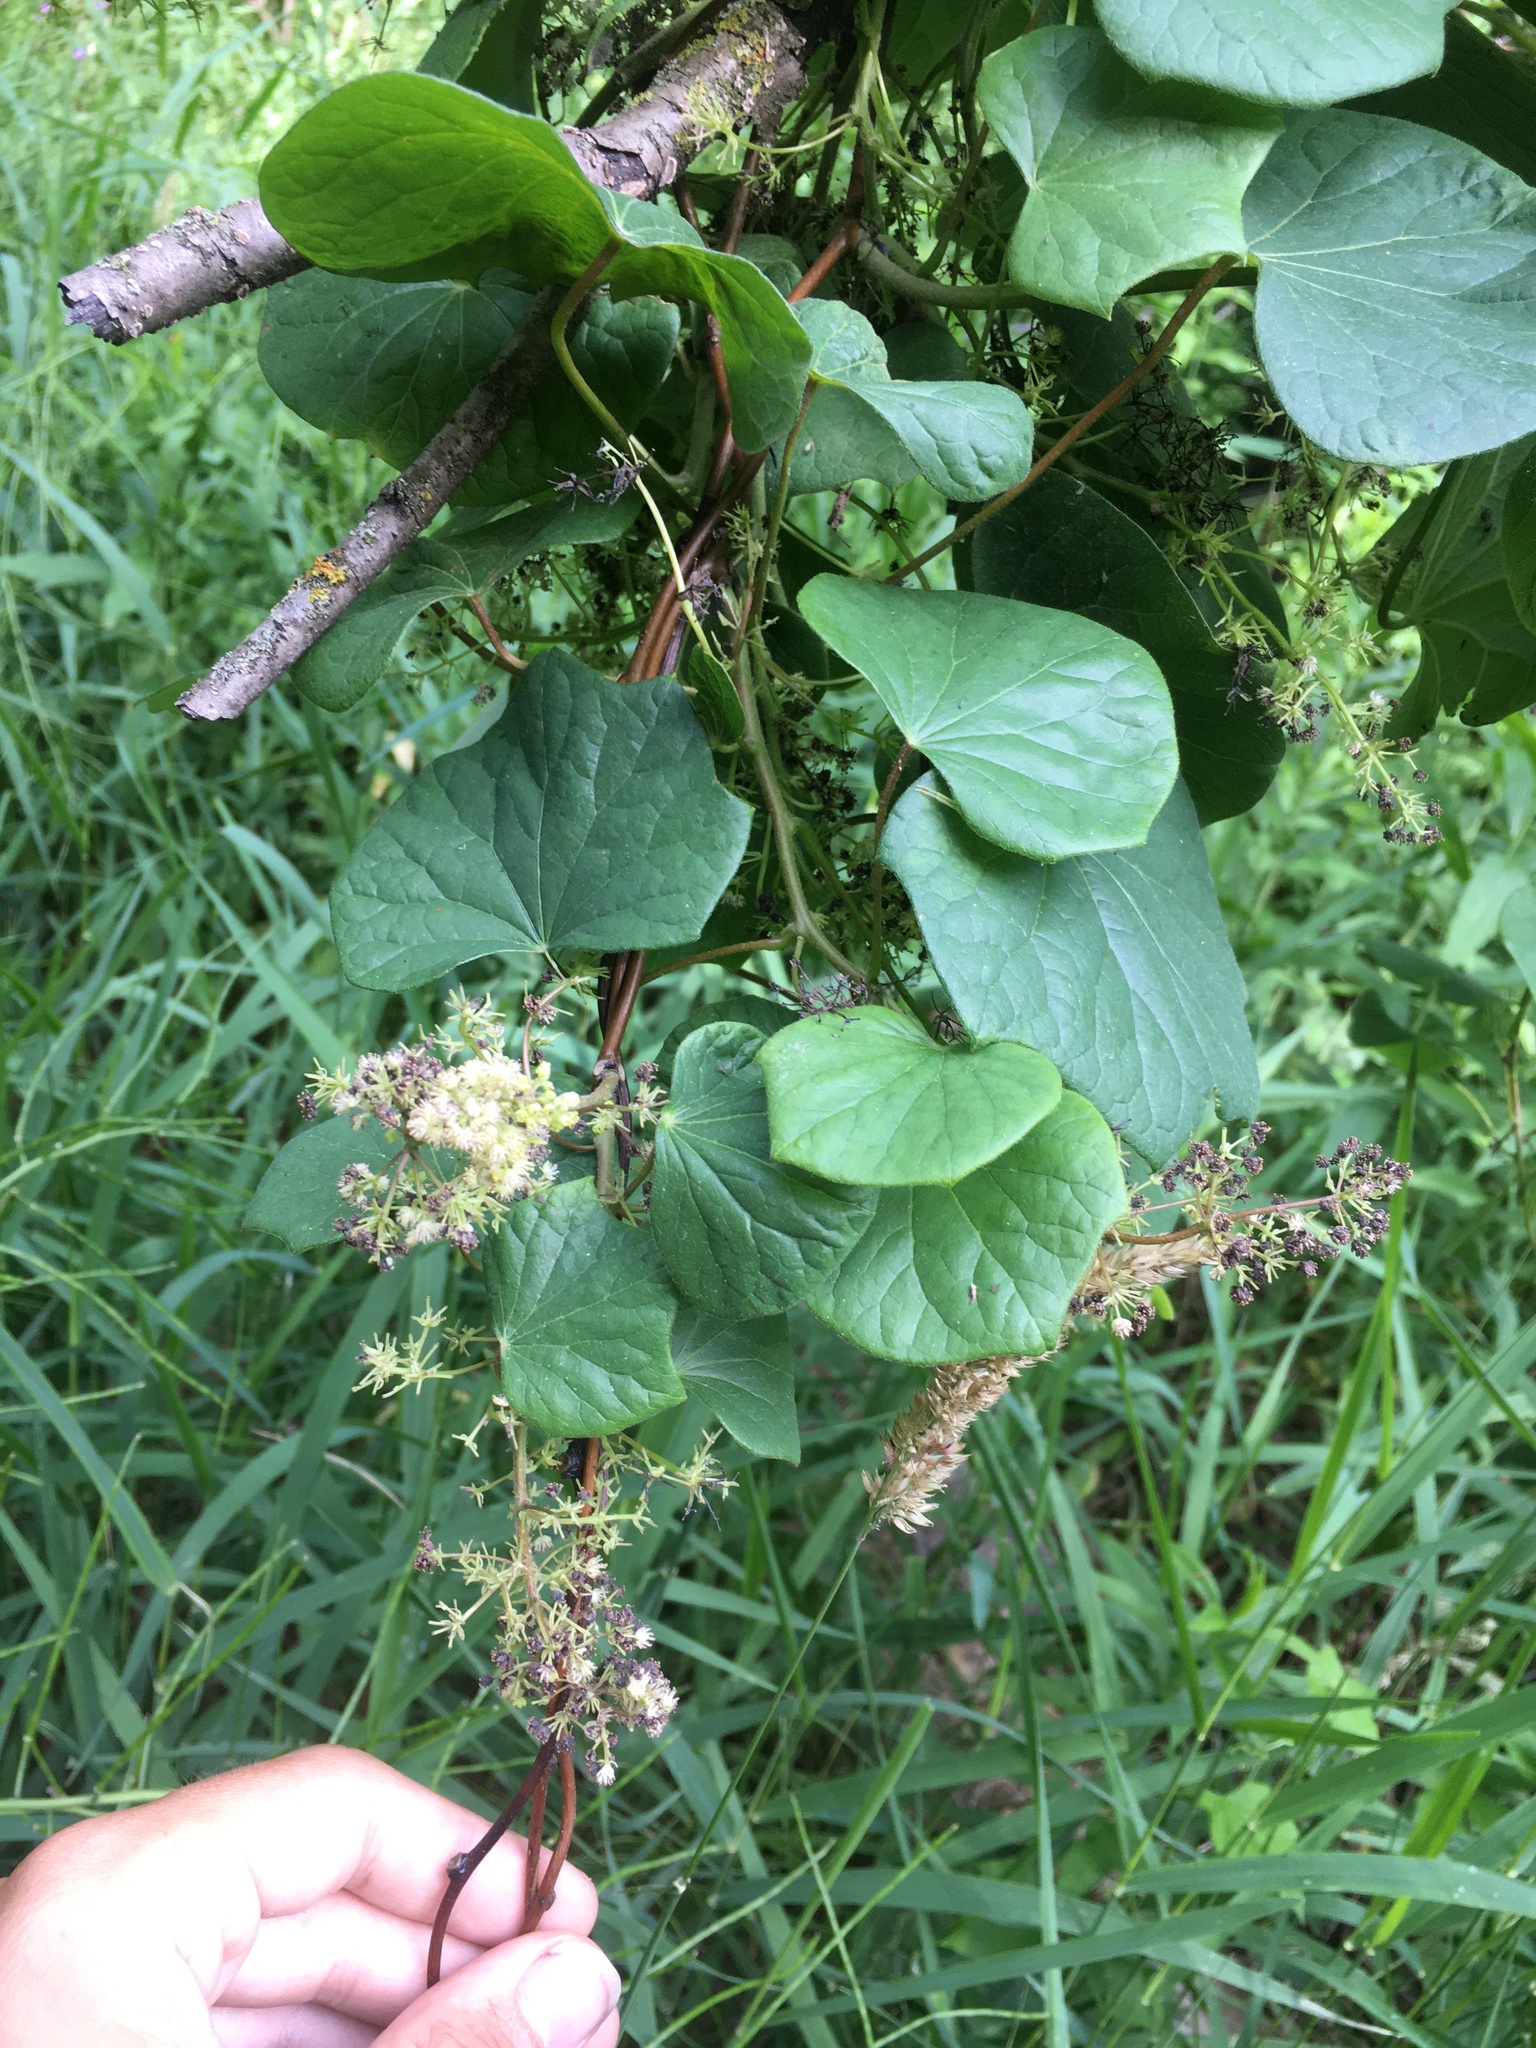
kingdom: Plantae
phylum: Tracheophyta
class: Magnoliopsida
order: Ranunculales
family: Menispermaceae
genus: Menispermum
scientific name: Menispermum canadense
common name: Moonseed
